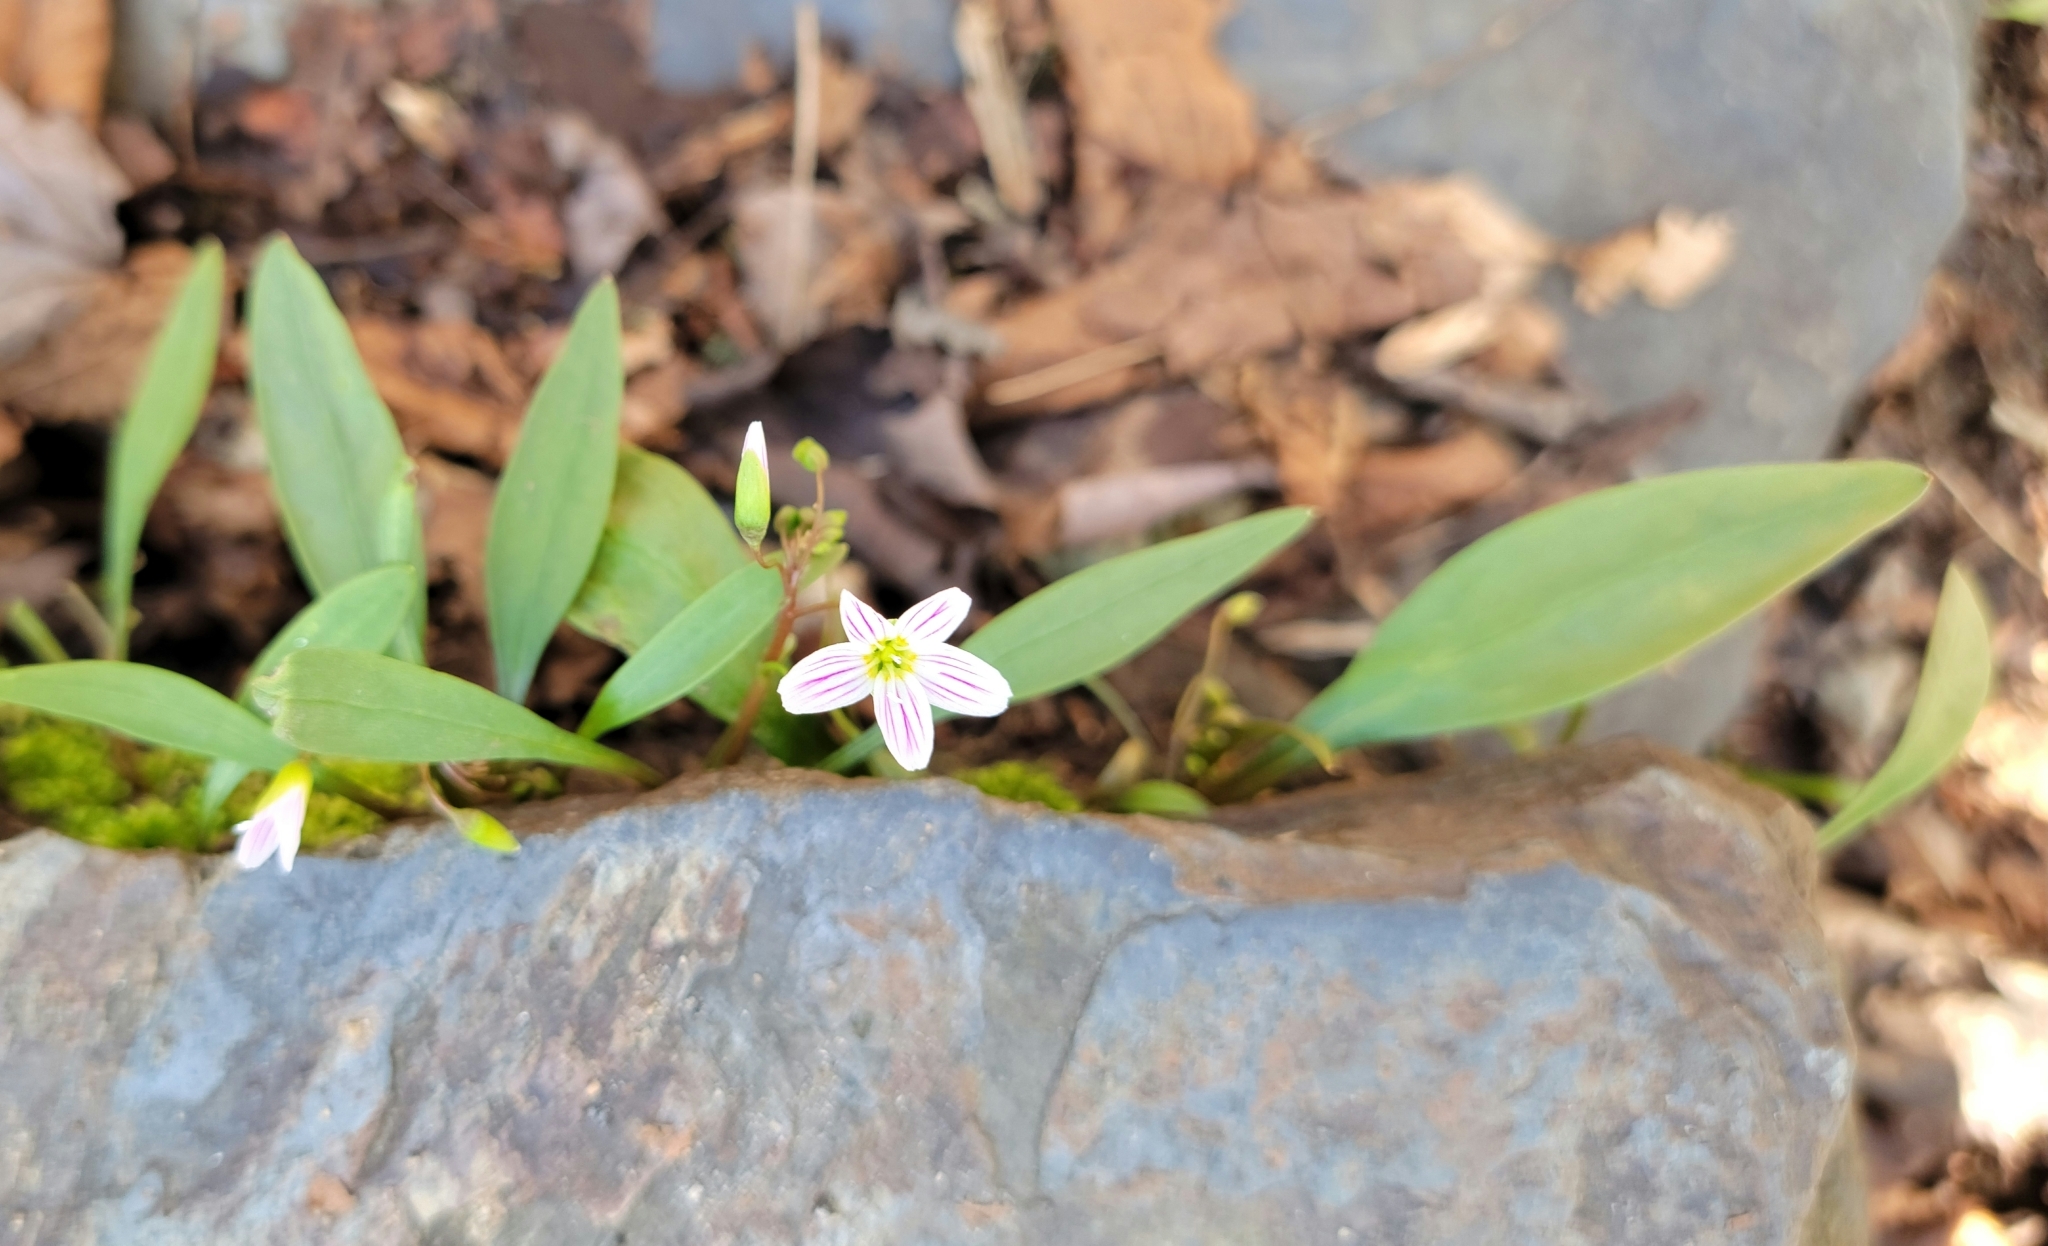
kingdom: Plantae
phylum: Tracheophyta
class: Magnoliopsida
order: Caryophyllales
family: Montiaceae
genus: Claytonia
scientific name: Claytonia caroliniana
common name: Carolina spring beauty
